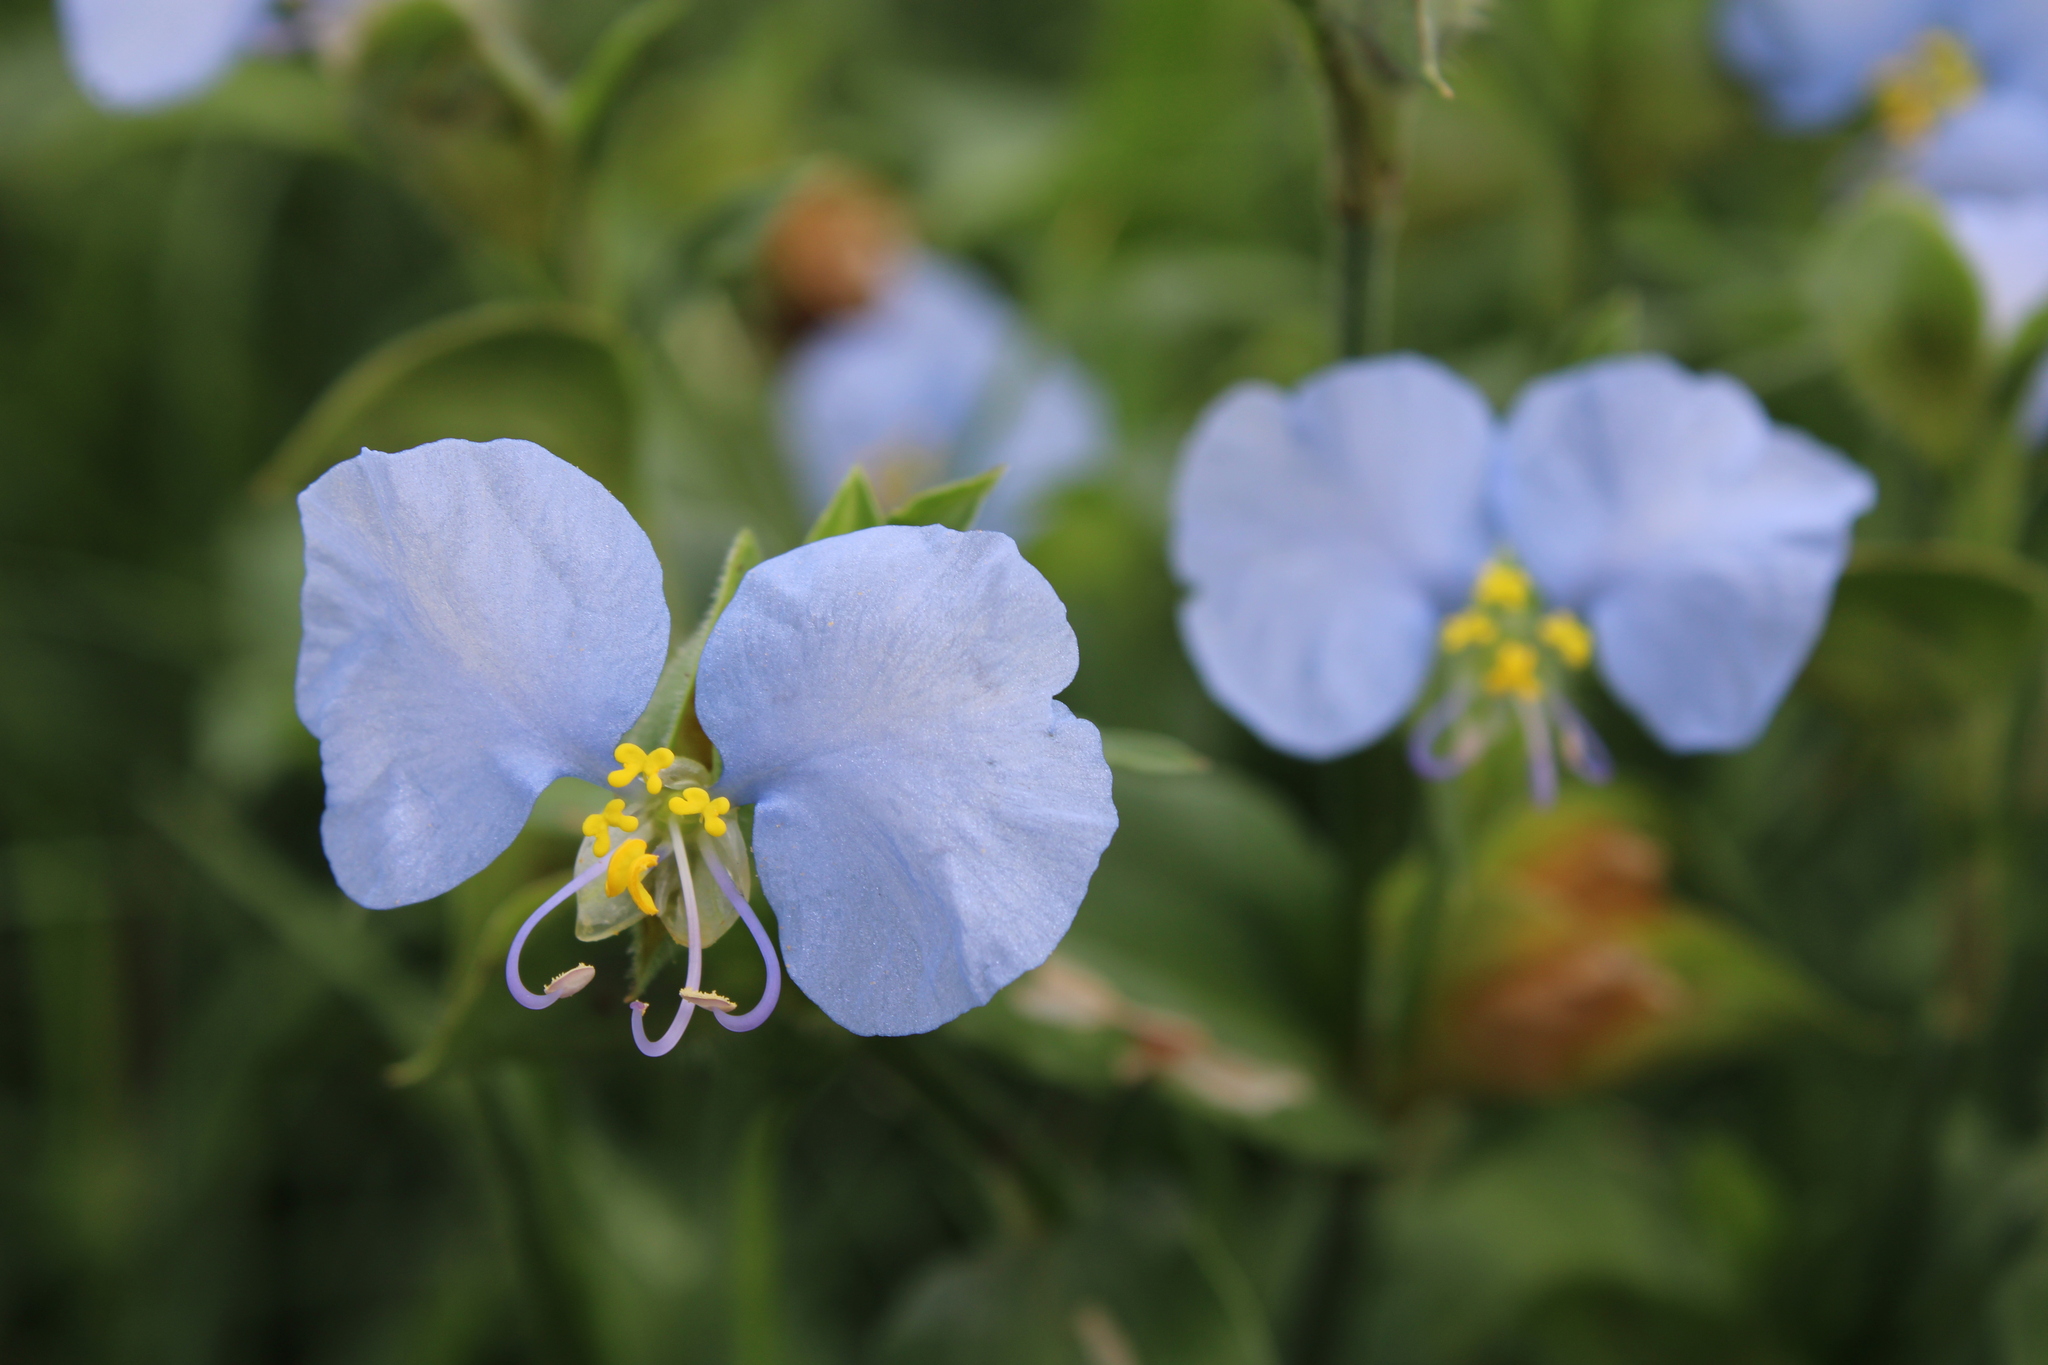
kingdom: Plantae
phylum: Tracheophyta
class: Liliopsida
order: Commelinales
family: Commelinaceae
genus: Commelina
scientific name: Commelina erecta
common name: Blousel blommetjie
